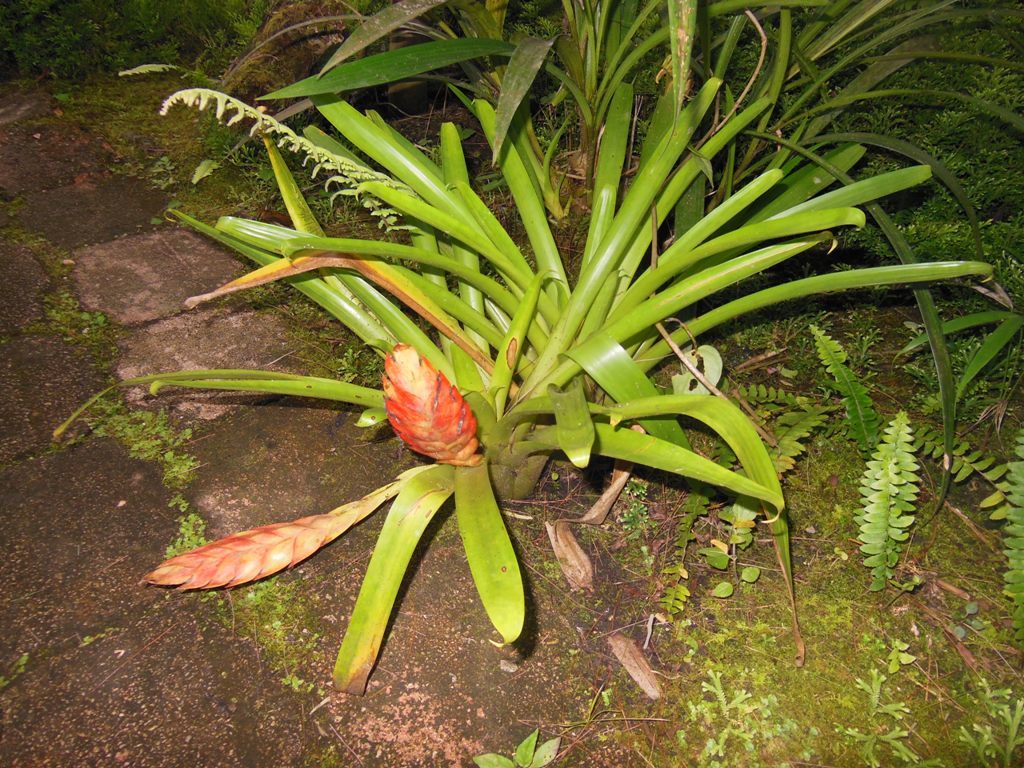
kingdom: Plantae
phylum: Tracheophyta
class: Liliopsida
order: Poales
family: Bromeliaceae
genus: Tillandsia
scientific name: Tillandsia multicaulis
